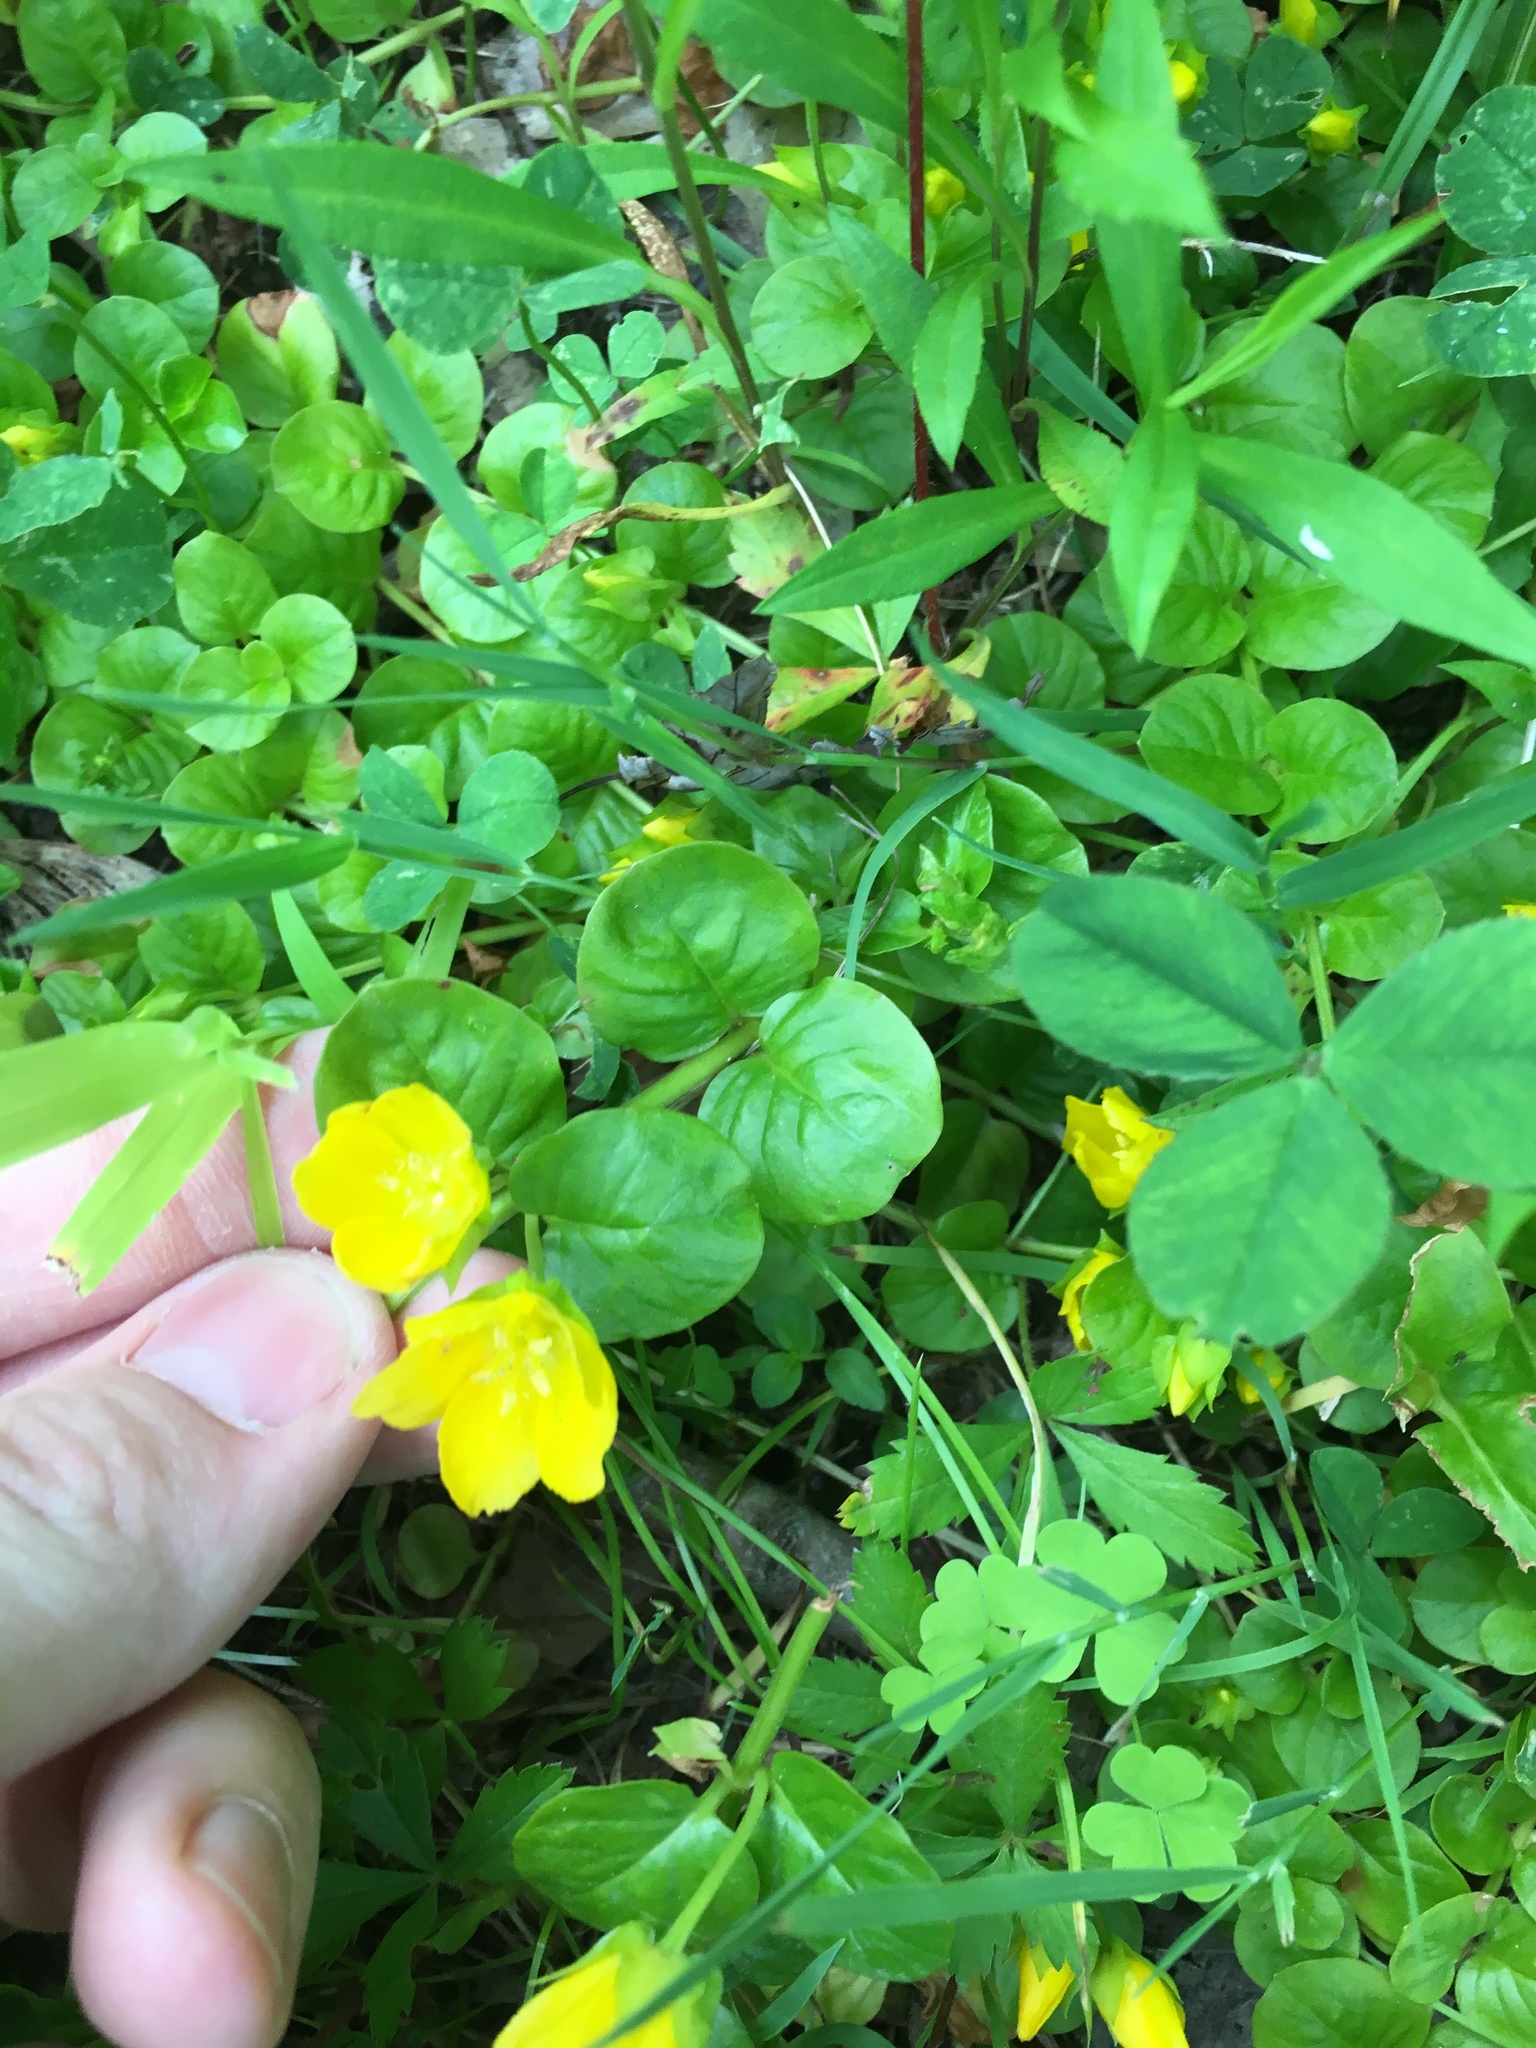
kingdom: Plantae
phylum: Tracheophyta
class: Magnoliopsida
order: Ericales
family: Primulaceae
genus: Lysimachia
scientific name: Lysimachia nummularia
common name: Moneywort
